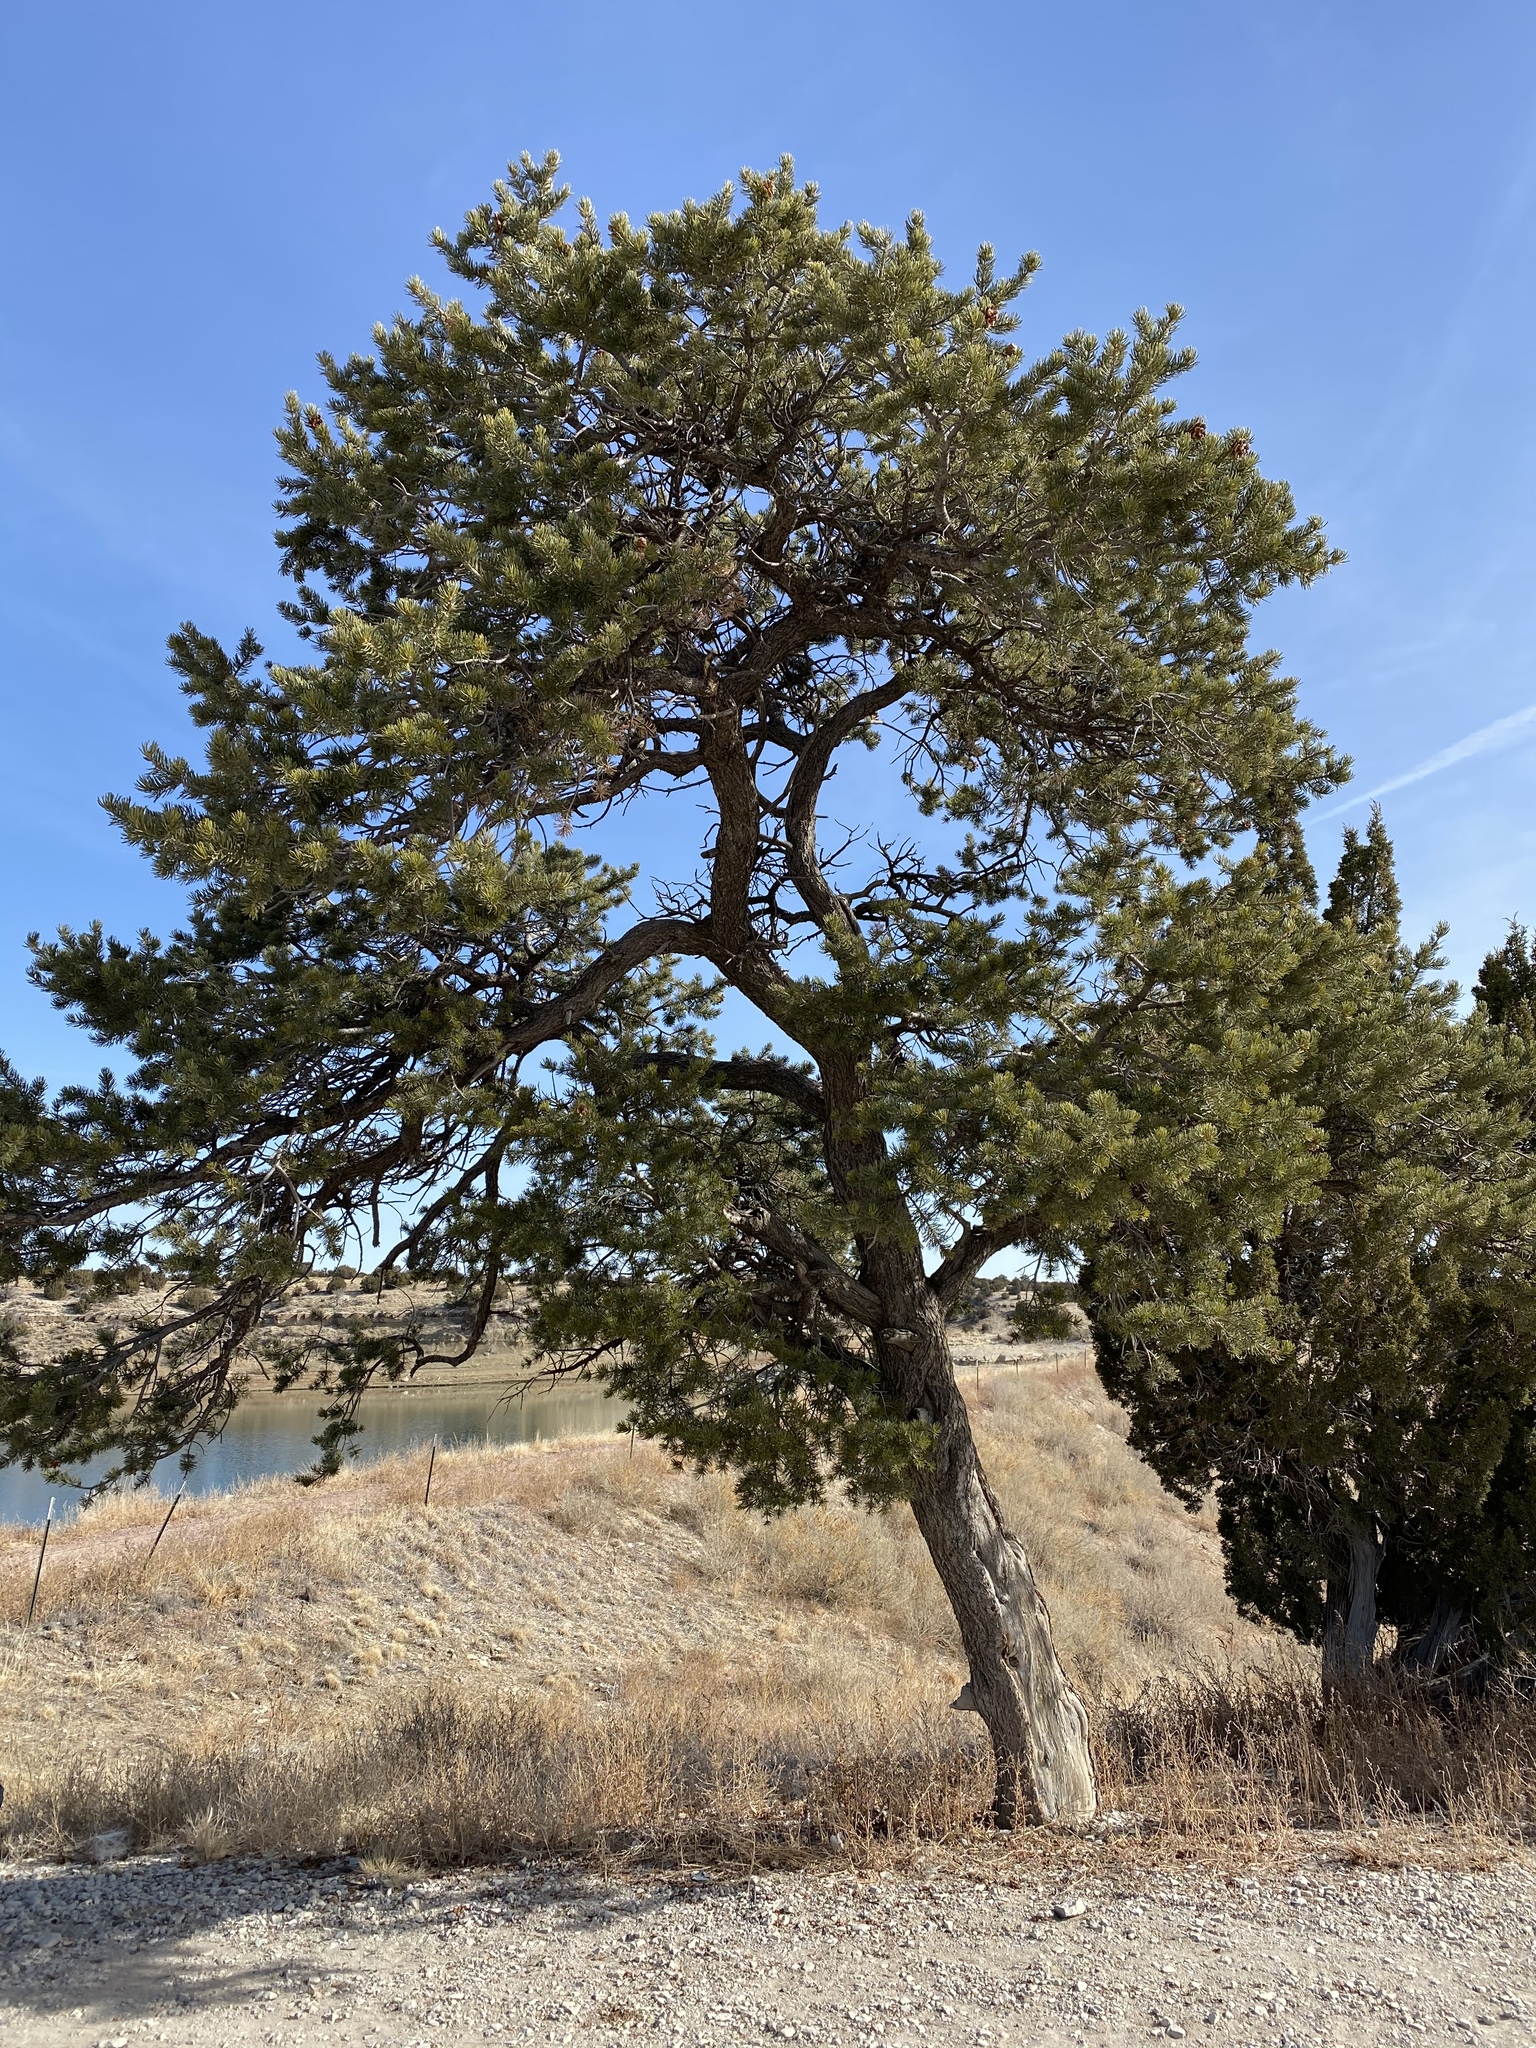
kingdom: Plantae
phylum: Tracheophyta
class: Pinopsida
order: Pinales
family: Pinaceae
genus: Pinus
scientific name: Pinus edulis
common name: Colorado pinyon
